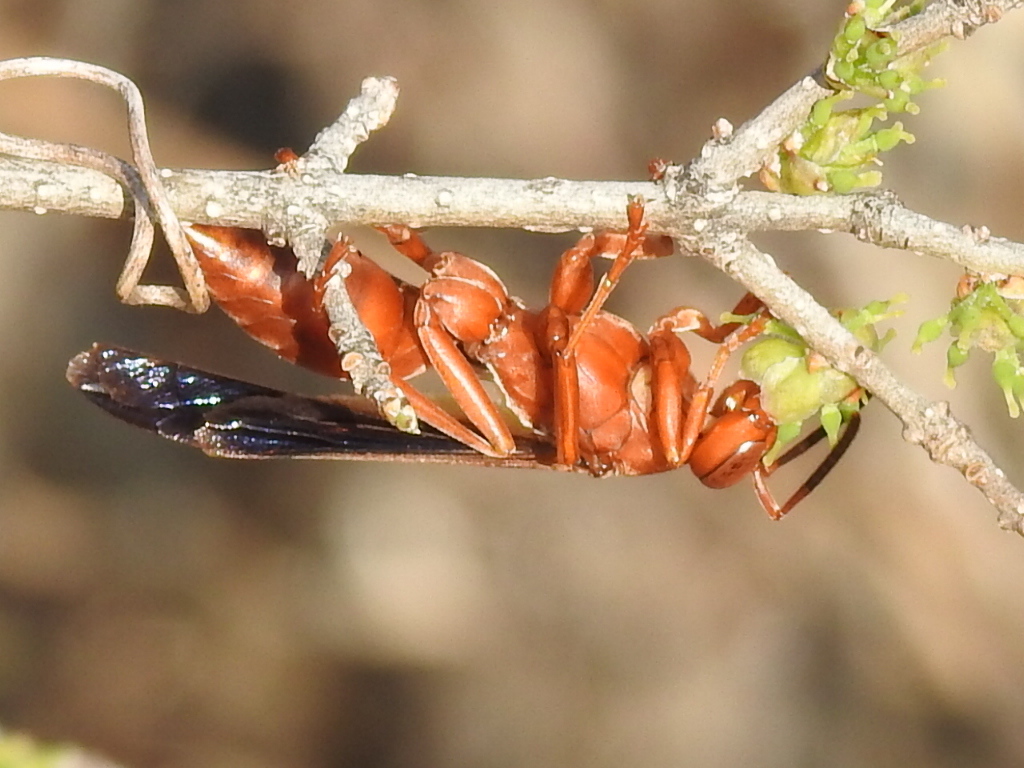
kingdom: Animalia
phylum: Arthropoda
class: Insecta
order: Hymenoptera
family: Vespidae
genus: Fuscopolistes
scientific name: Fuscopolistes
